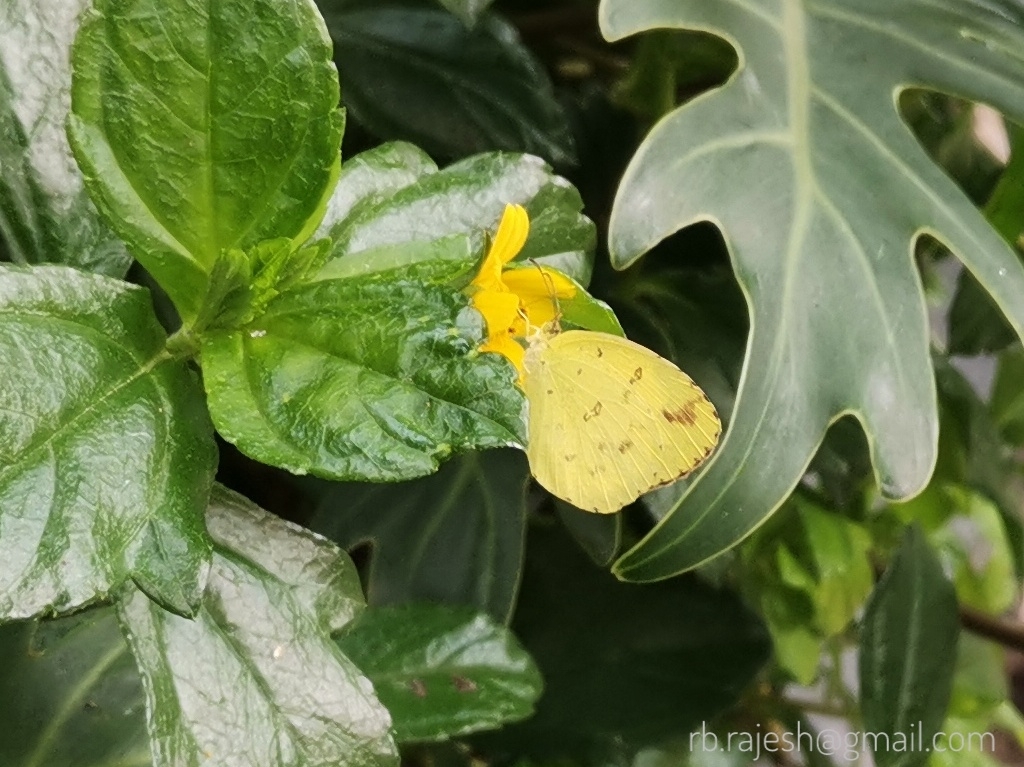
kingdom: Animalia
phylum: Arthropoda
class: Insecta
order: Lepidoptera
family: Pieridae
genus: Eurema
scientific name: Eurema hecabe
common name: Pale grass yellow
